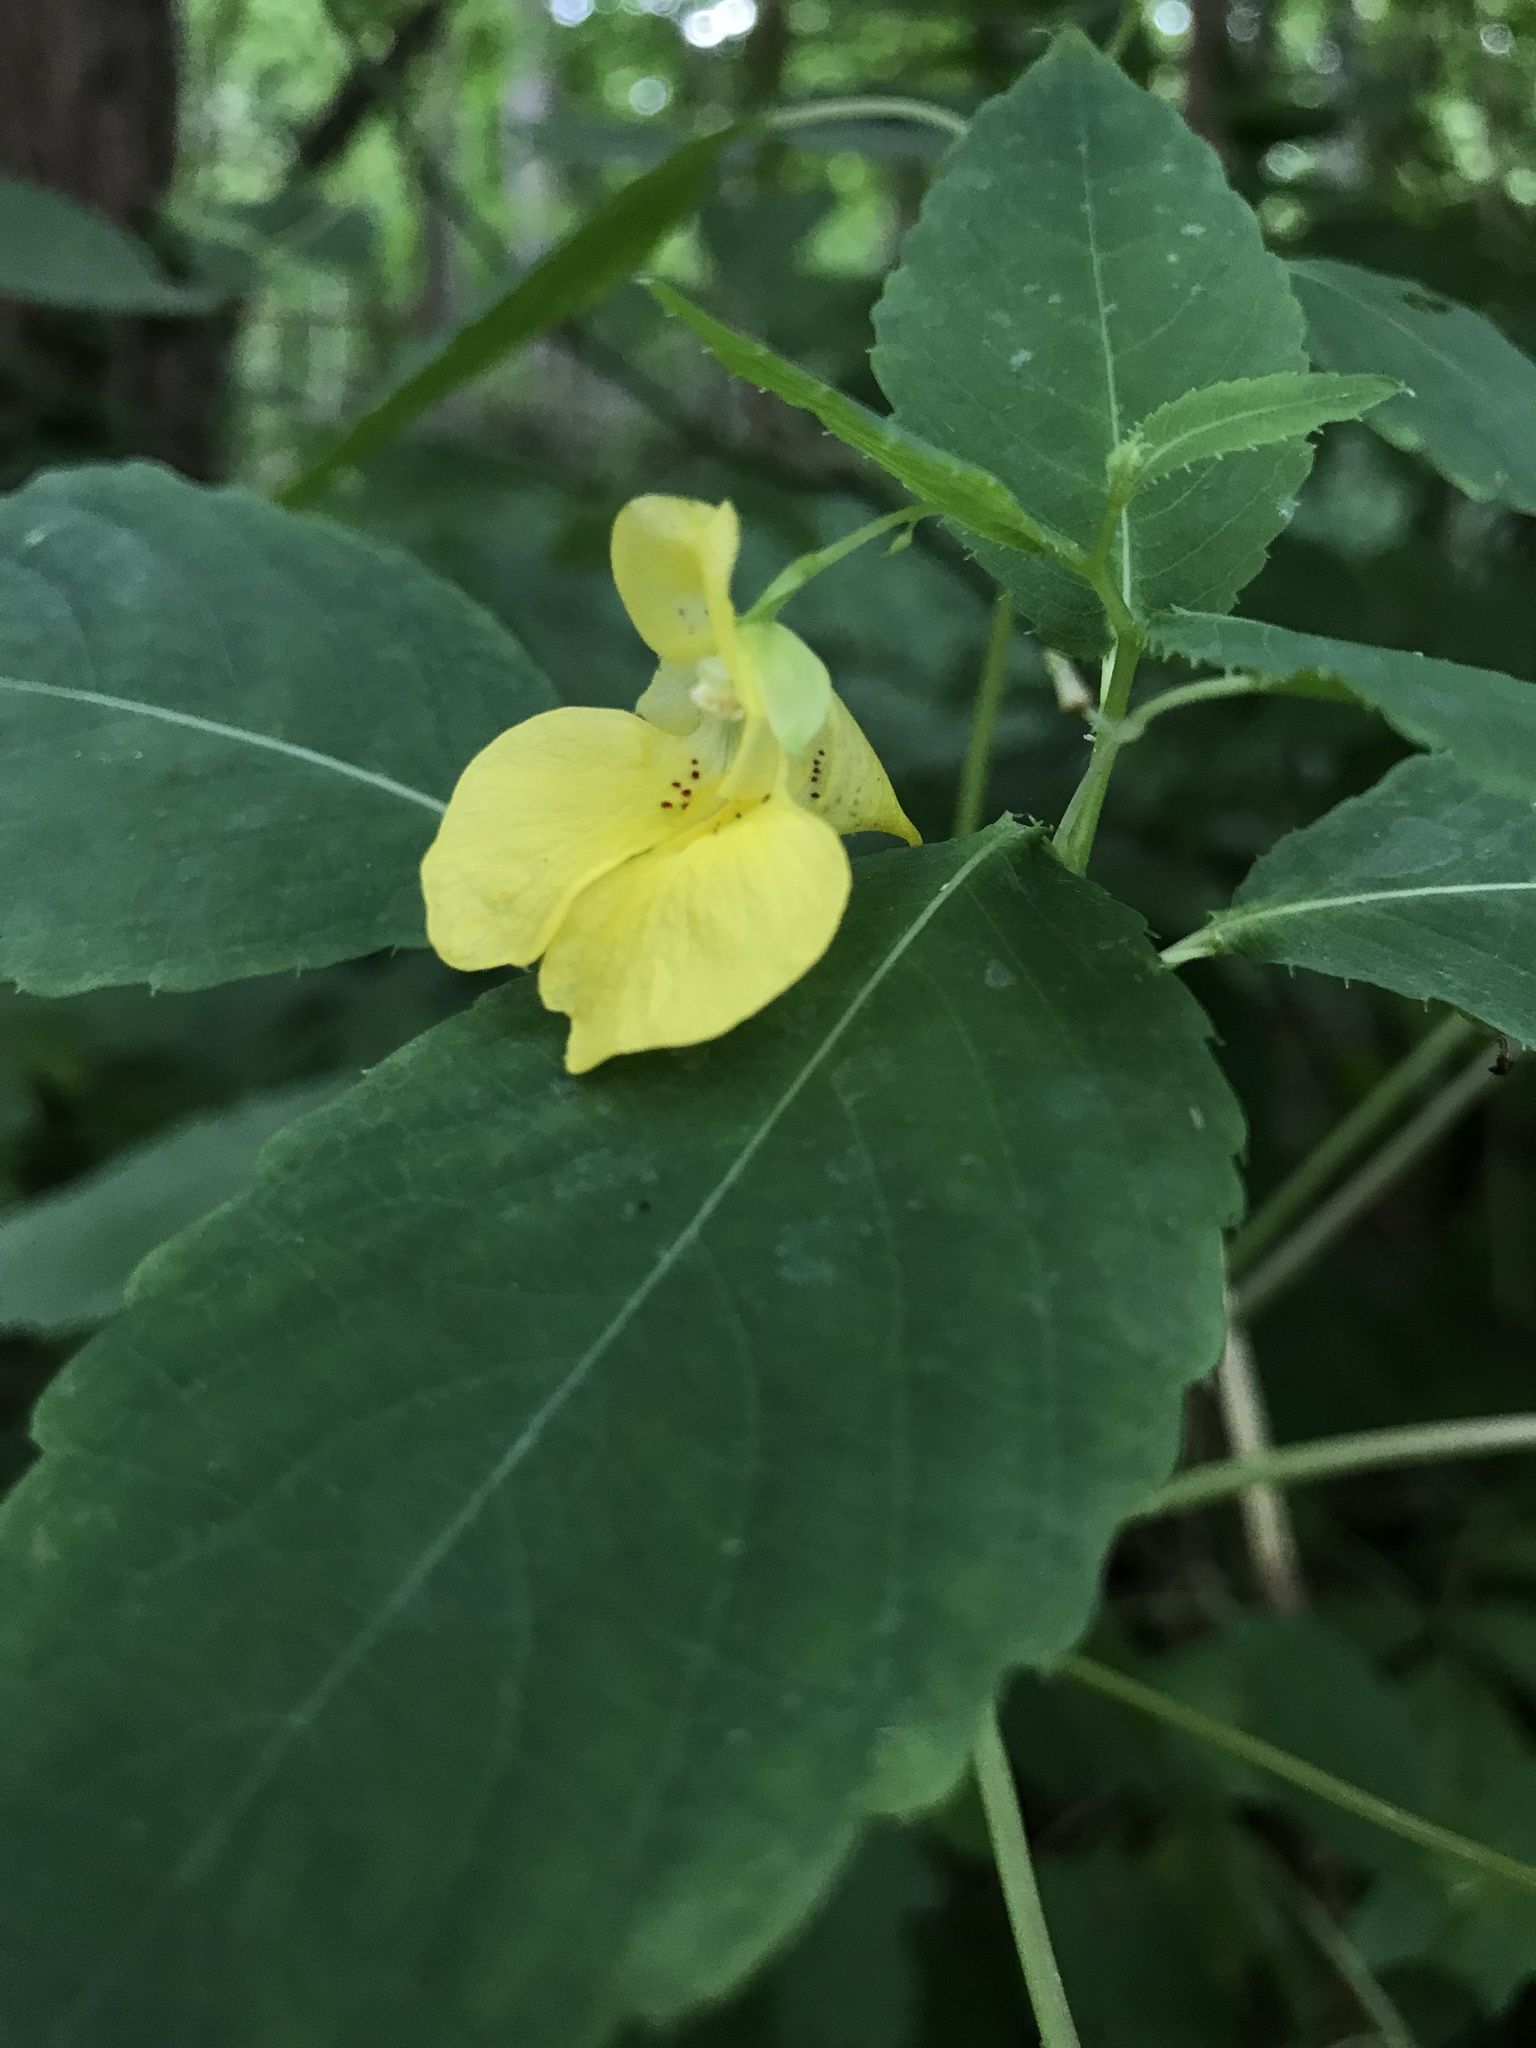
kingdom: Plantae
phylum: Tracheophyta
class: Magnoliopsida
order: Ericales
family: Balsaminaceae
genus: Impatiens
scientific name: Impatiens pallida
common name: Pale snapweed
